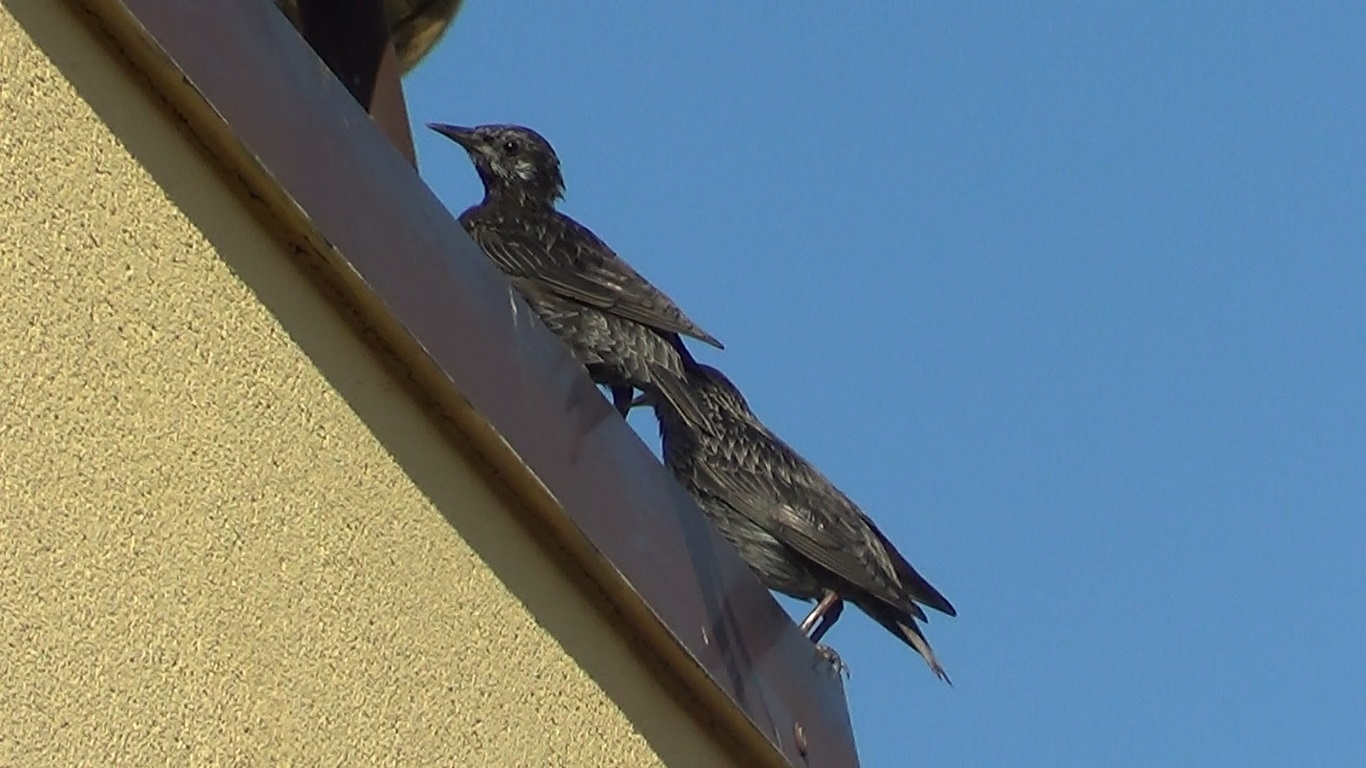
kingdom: Animalia
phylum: Chordata
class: Aves
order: Passeriformes
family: Sturnidae
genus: Sturnus
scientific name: Sturnus vulgaris
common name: Common starling
